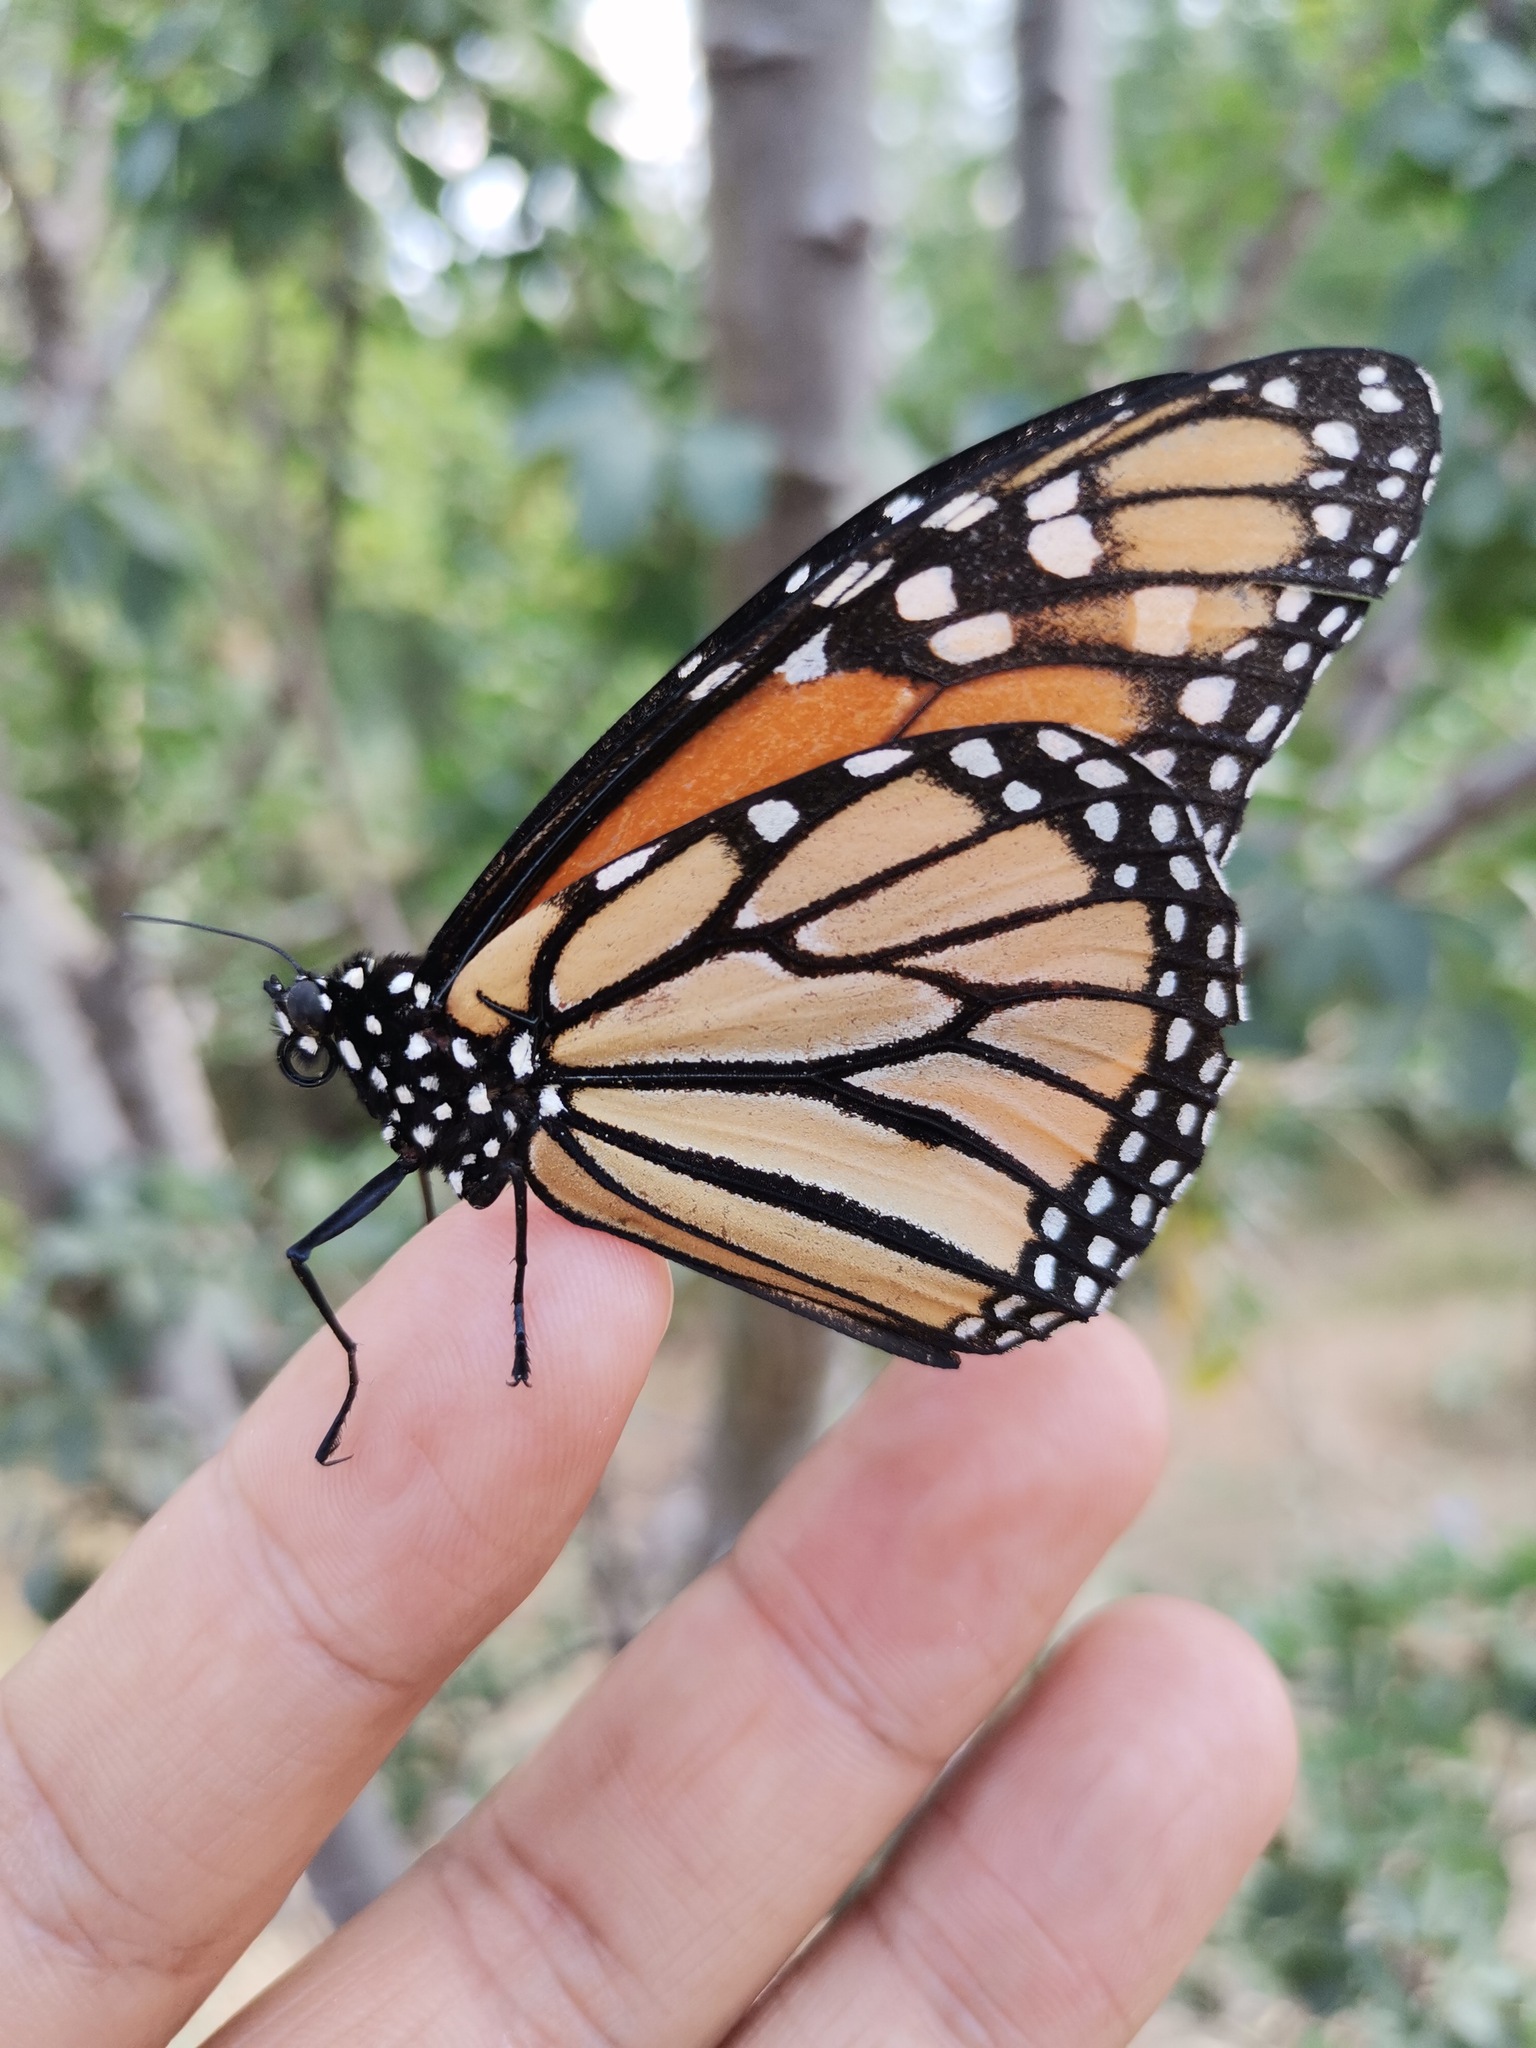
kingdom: Animalia
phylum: Arthropoda
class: Insecta
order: Lepidoptera
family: Nymphalidae
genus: Danaus
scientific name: Danaus plexippus
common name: Monarch
